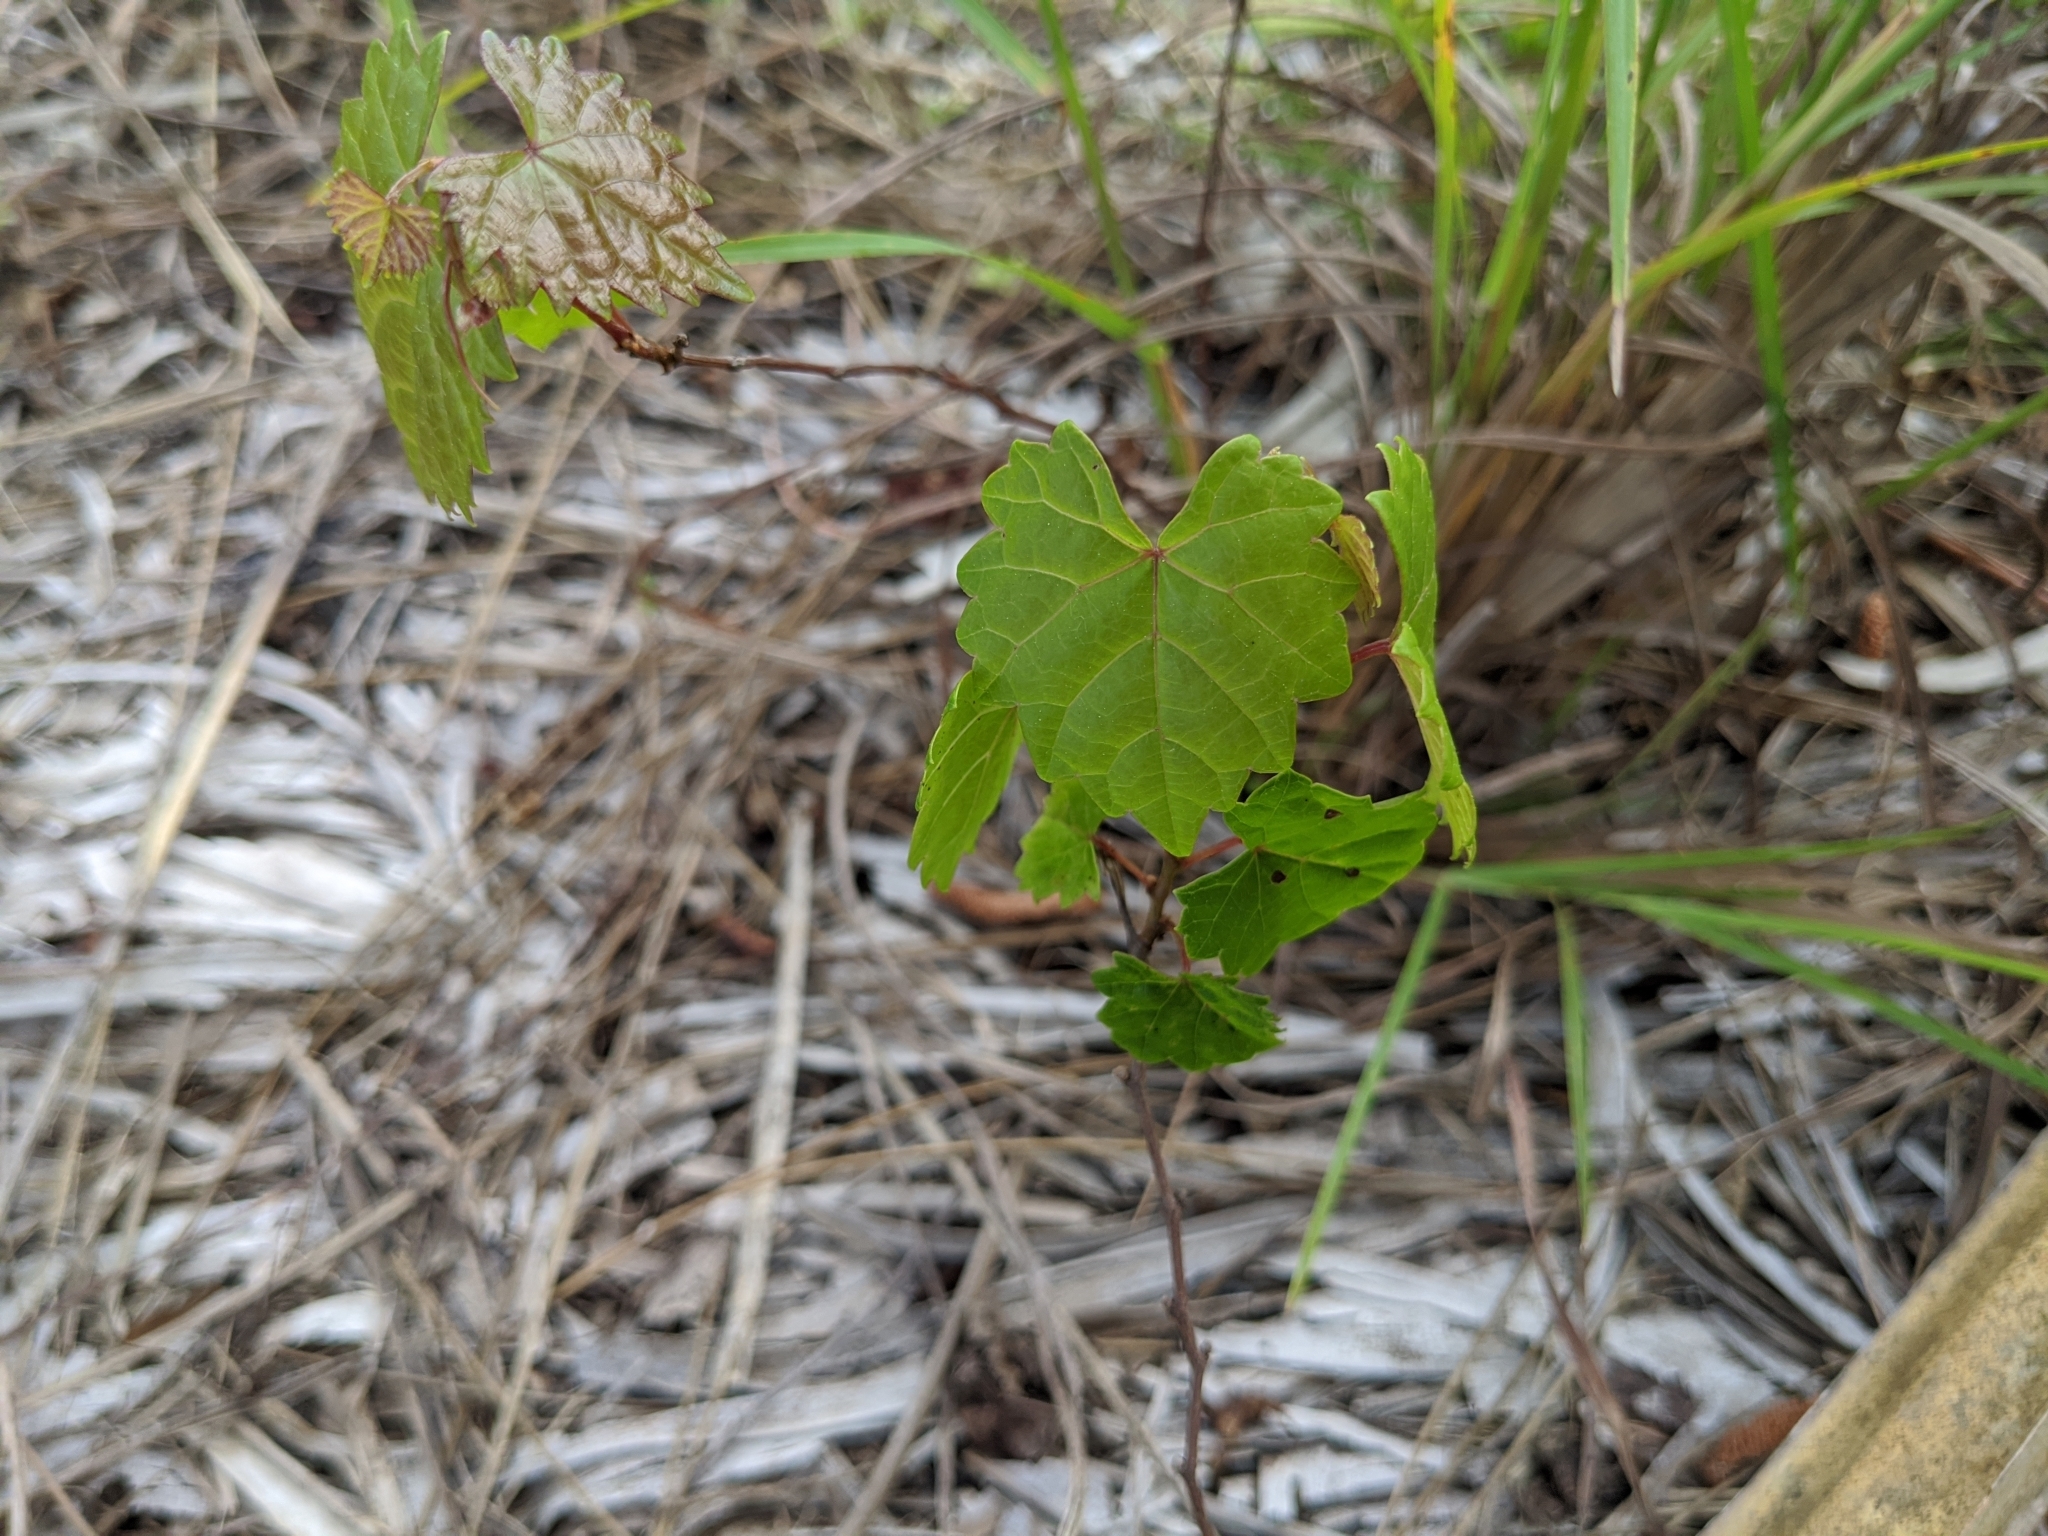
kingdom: Plantae
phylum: Tracheophyta
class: Magnoliopsida
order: Vitales
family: Vitaceae
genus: Vitis
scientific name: Vitis rotundifolia
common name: Muscadine grape
